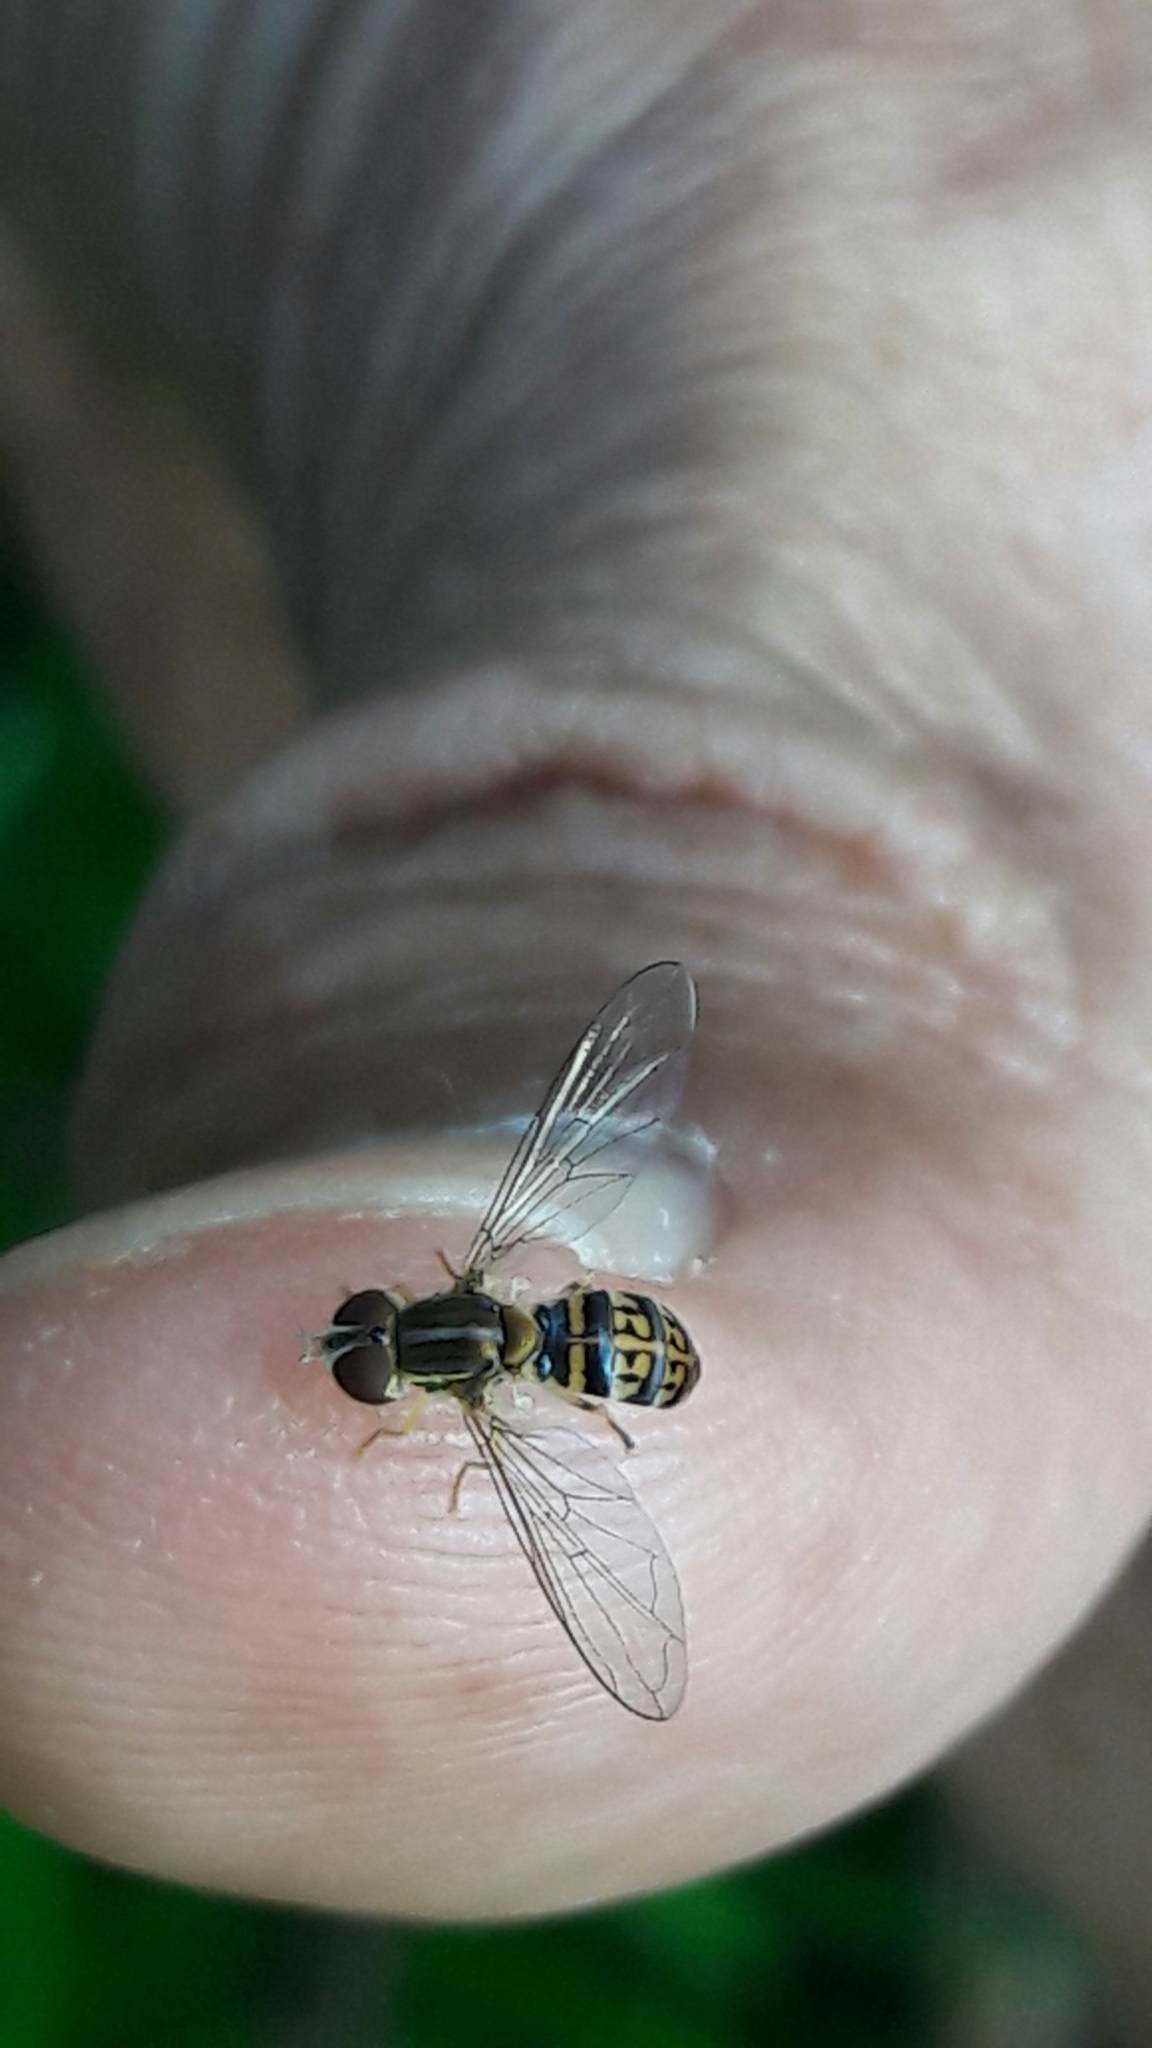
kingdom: Animalia
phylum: Arthropoda
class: Insecta
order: Diptera
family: Syrphidae
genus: Toxomerus
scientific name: Toxomerus
